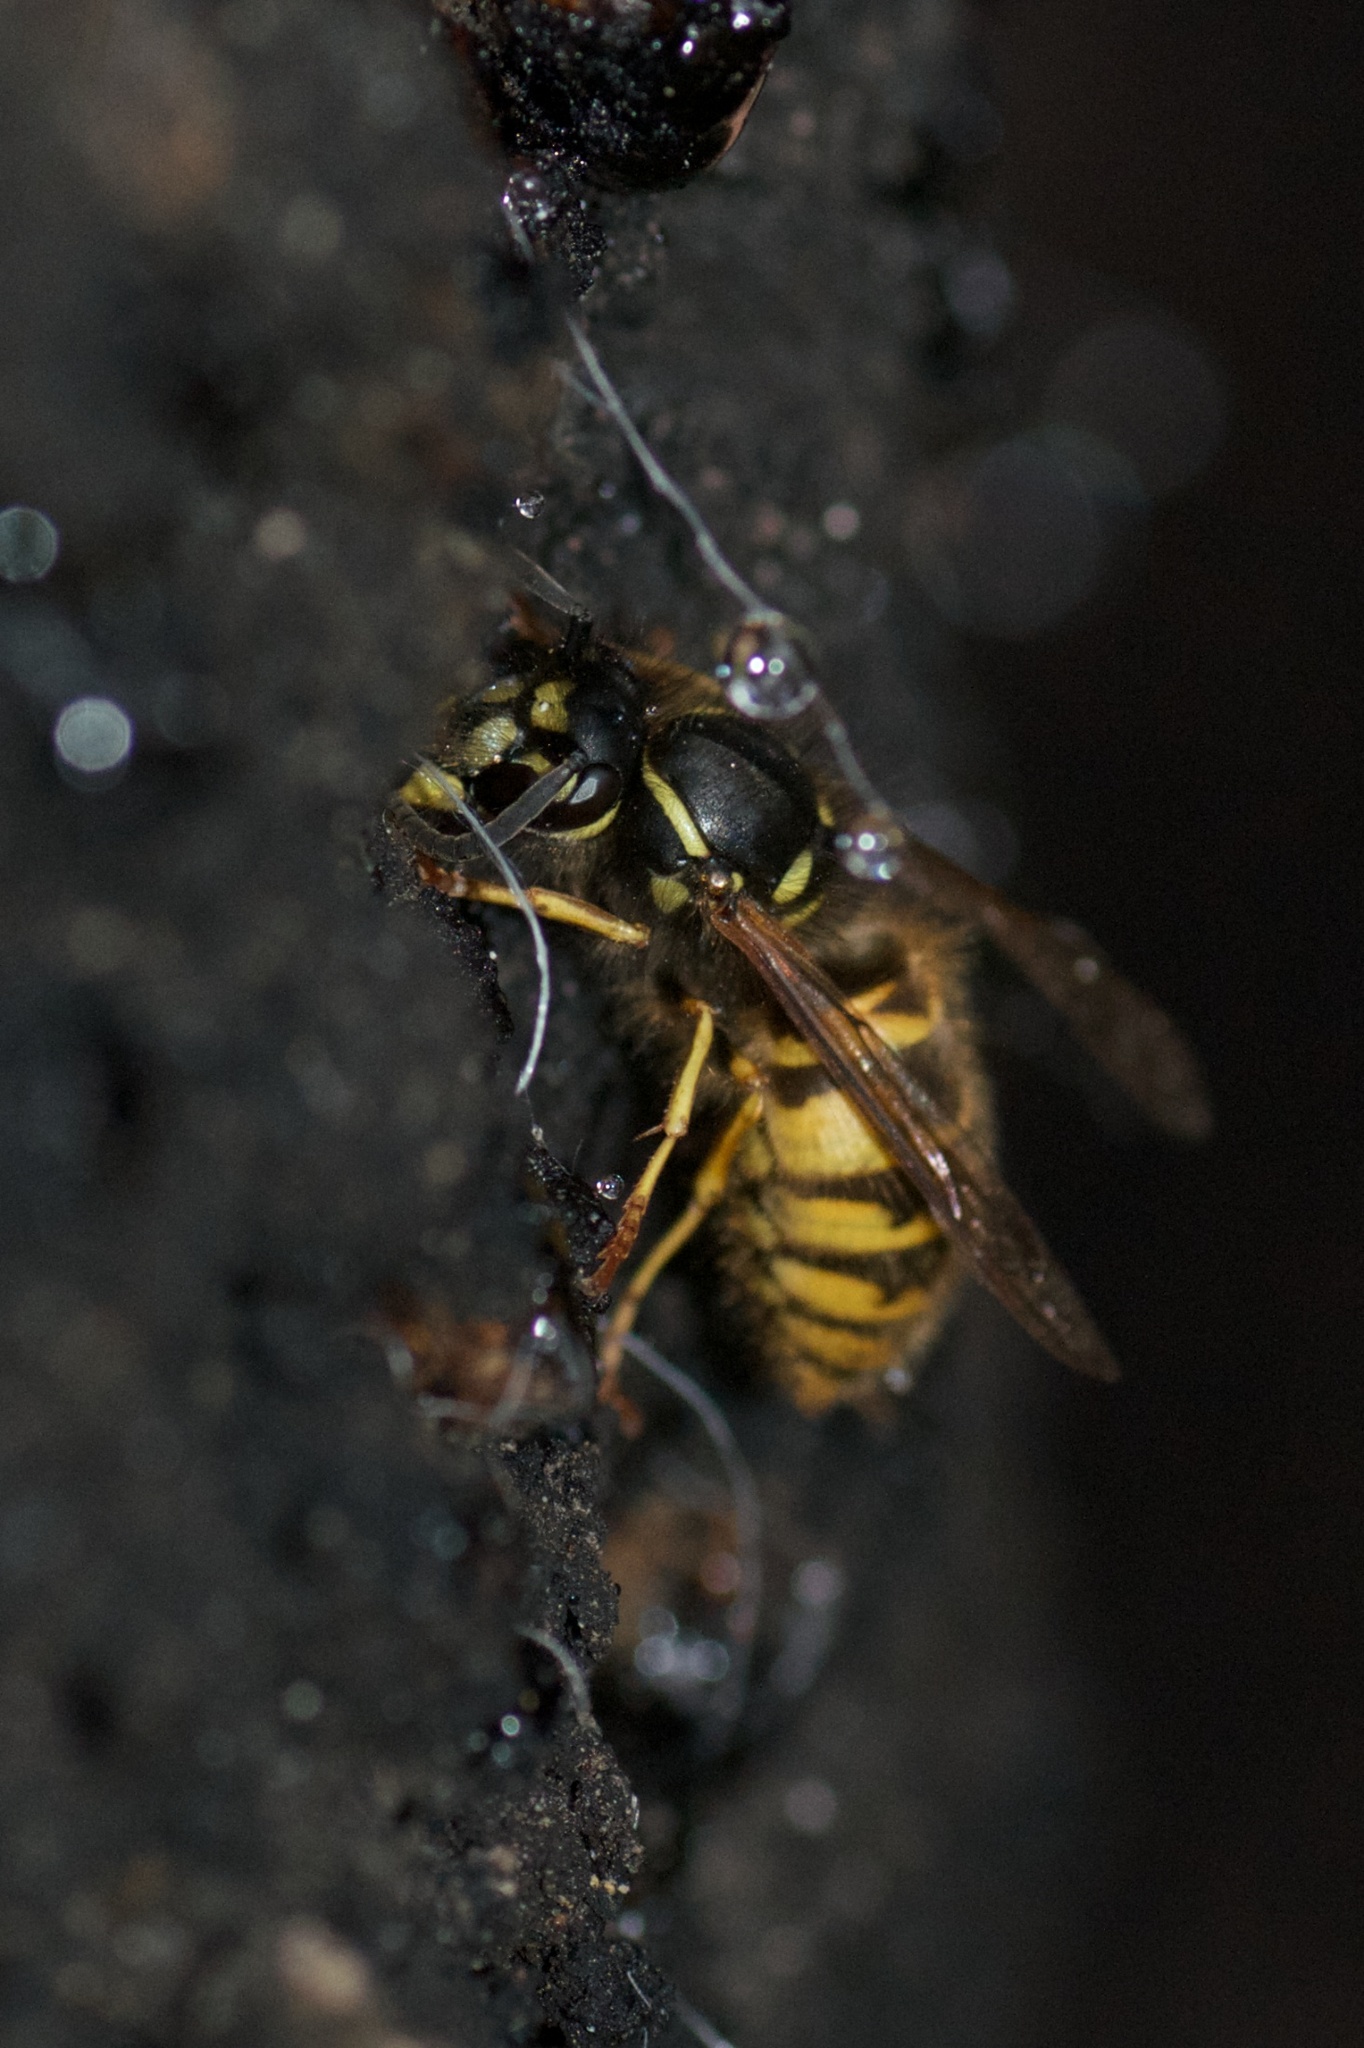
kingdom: Animalia
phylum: Arthropoda
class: Insecta
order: Hymenoptera
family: Vespidae
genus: Vespula
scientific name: Vespula vulgaris
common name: Common wasp
